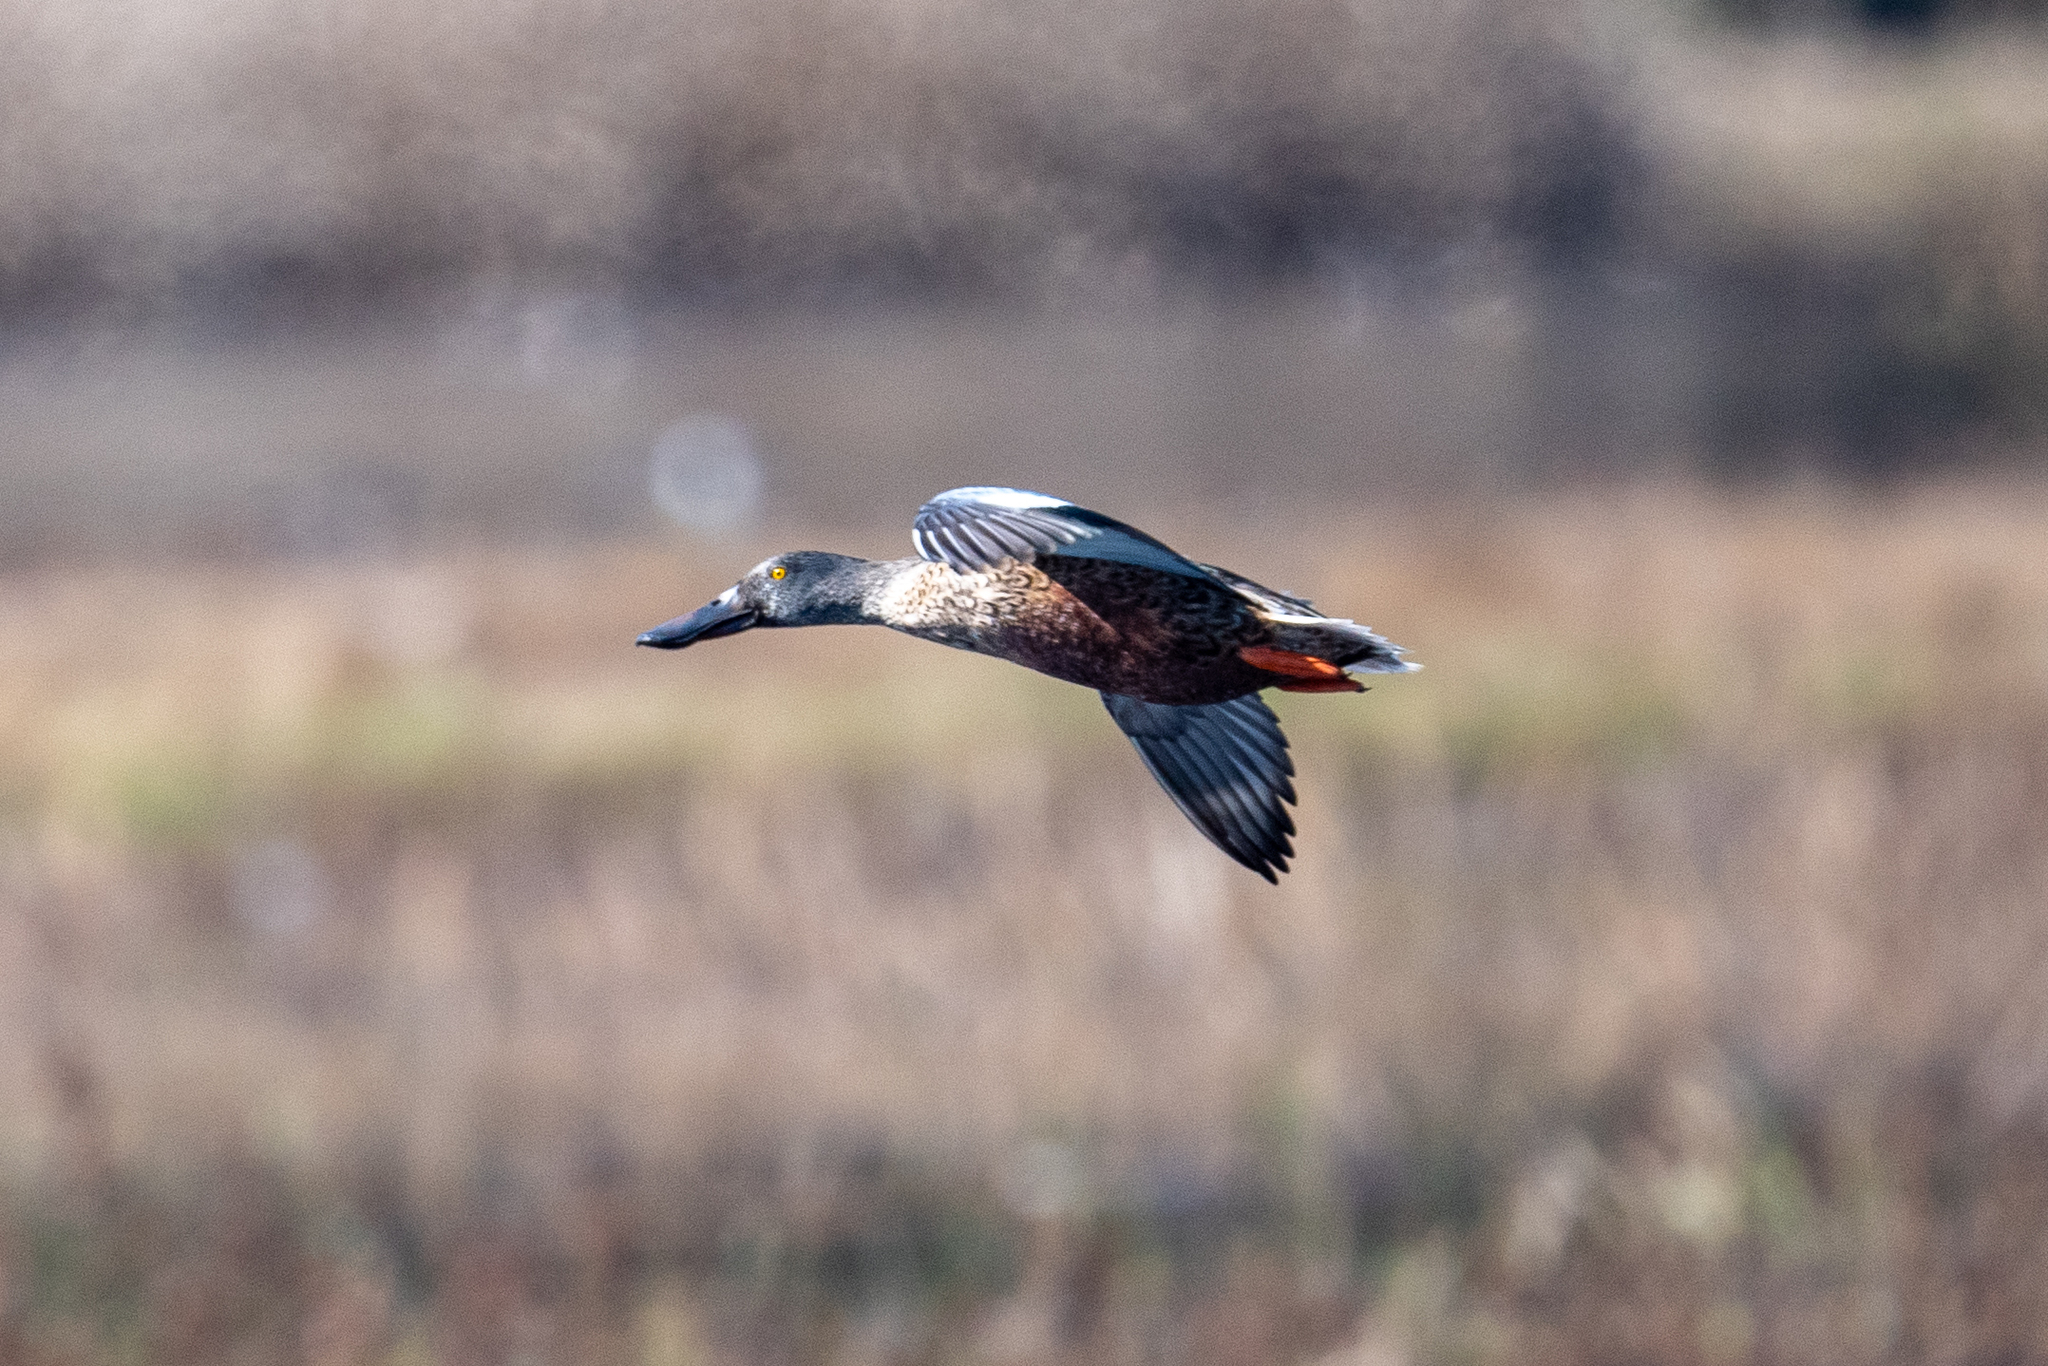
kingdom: Animalia
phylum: Chordata
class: Aves
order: Anseriformes
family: Anatidae
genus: Spatula
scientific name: Spatula clypeata
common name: Northern shoveler
